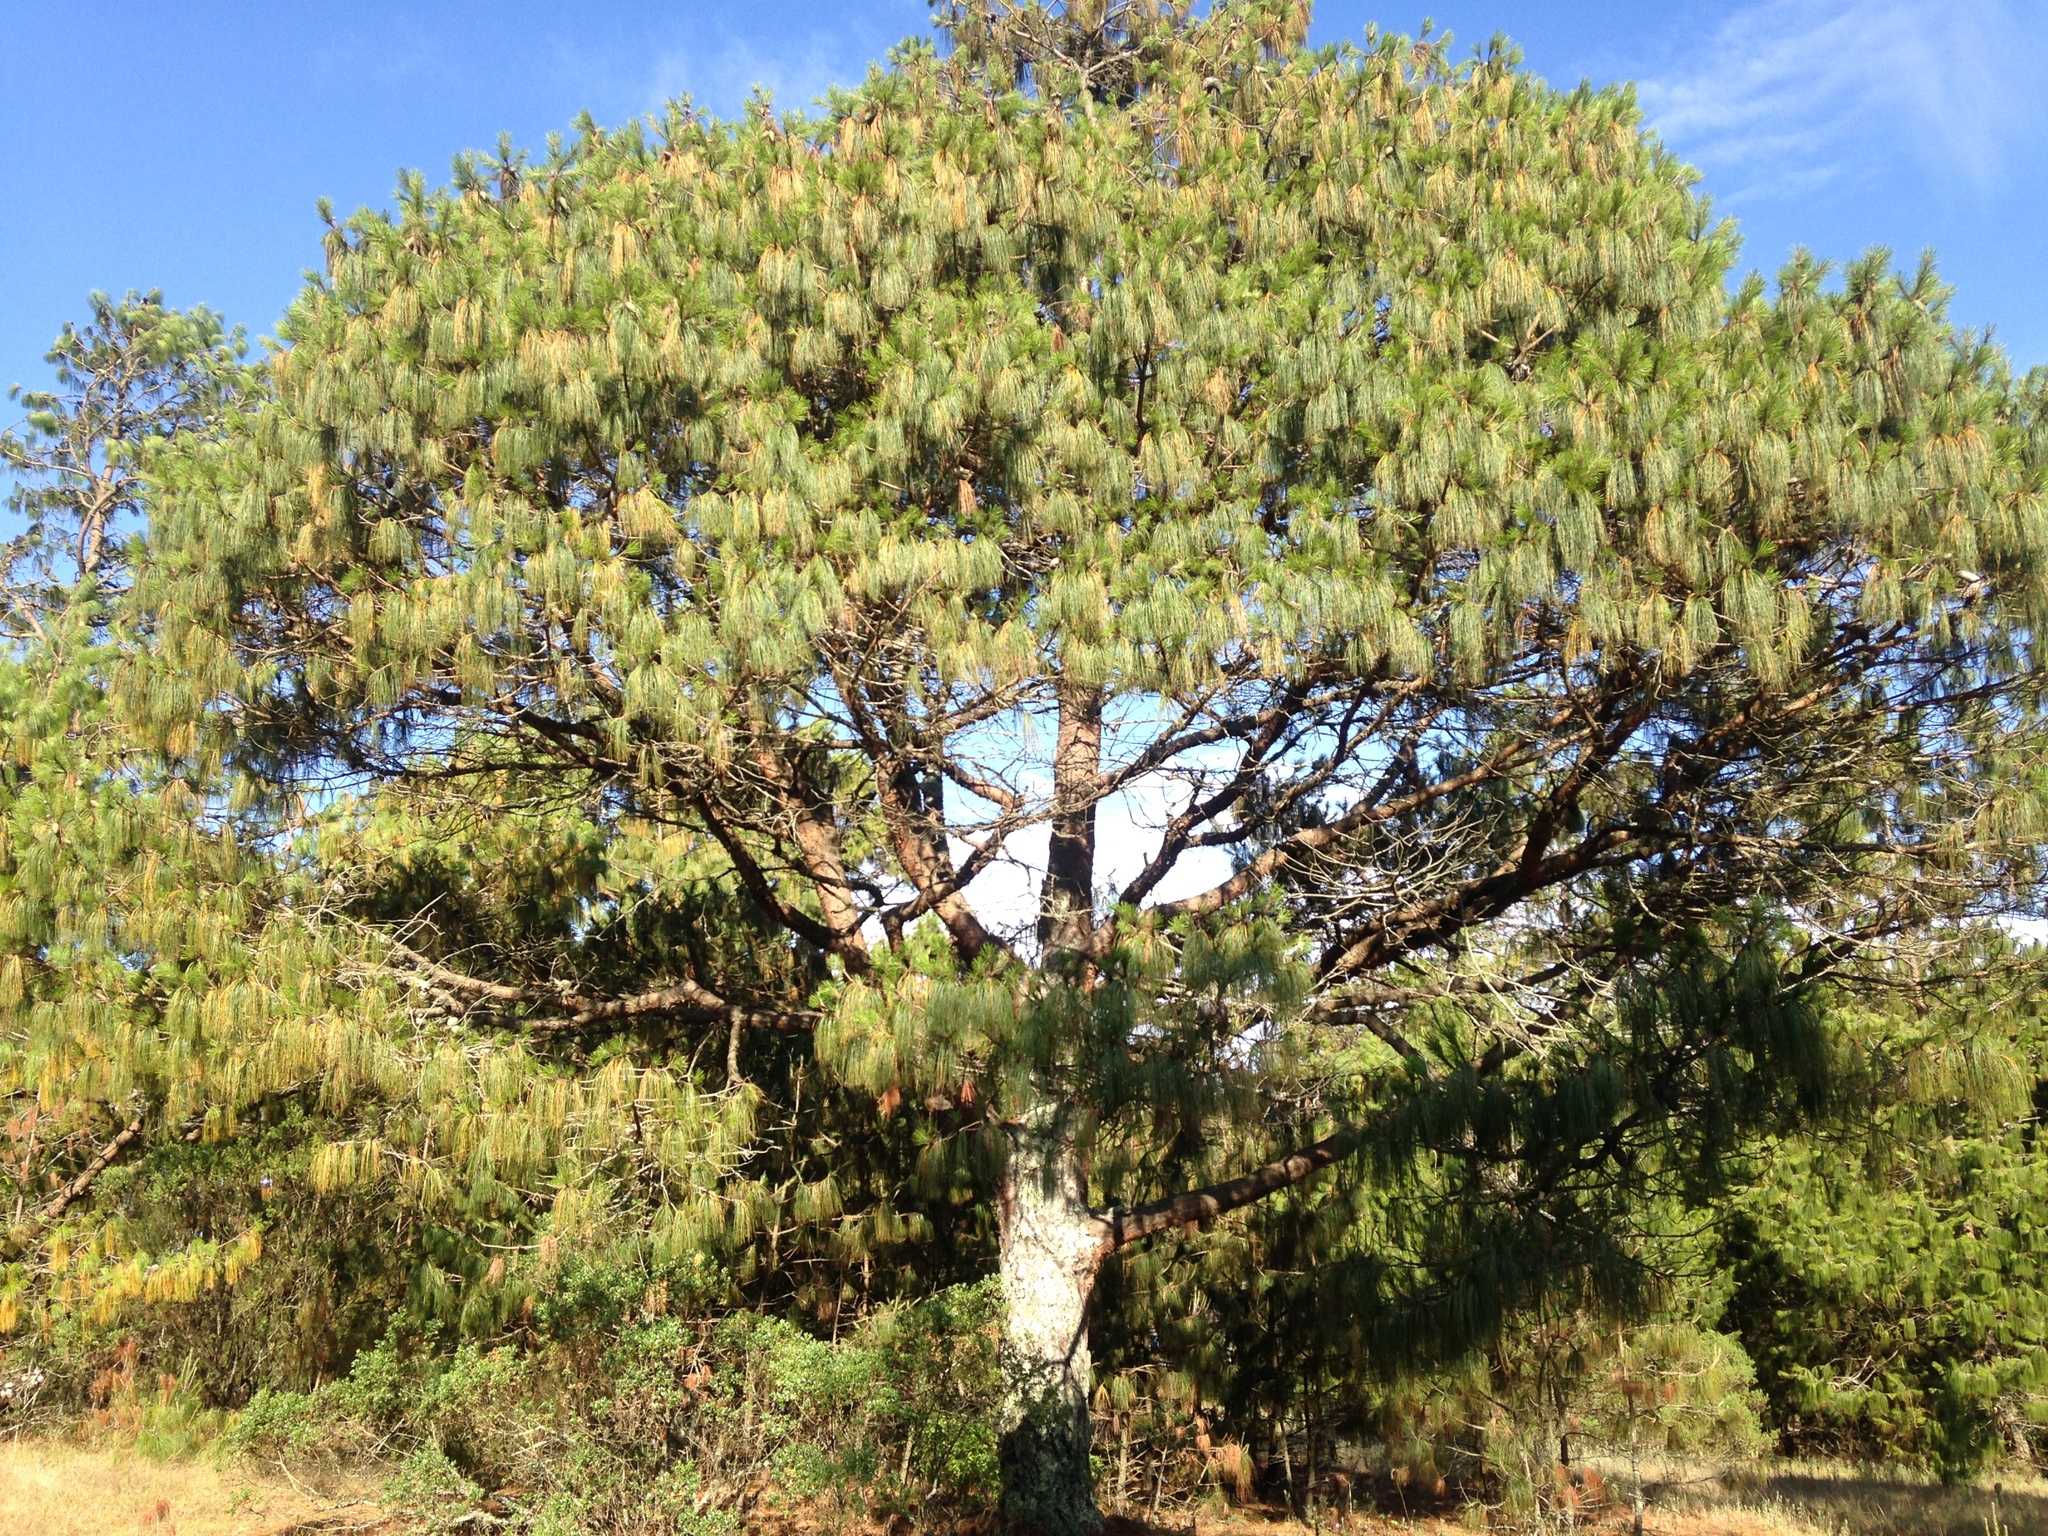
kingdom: Plantae
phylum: Tracheophyta
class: Pinopsida
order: Pinales
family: Pinaceae
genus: Pinus
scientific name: Pinus patula
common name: Mexican weeping pine
